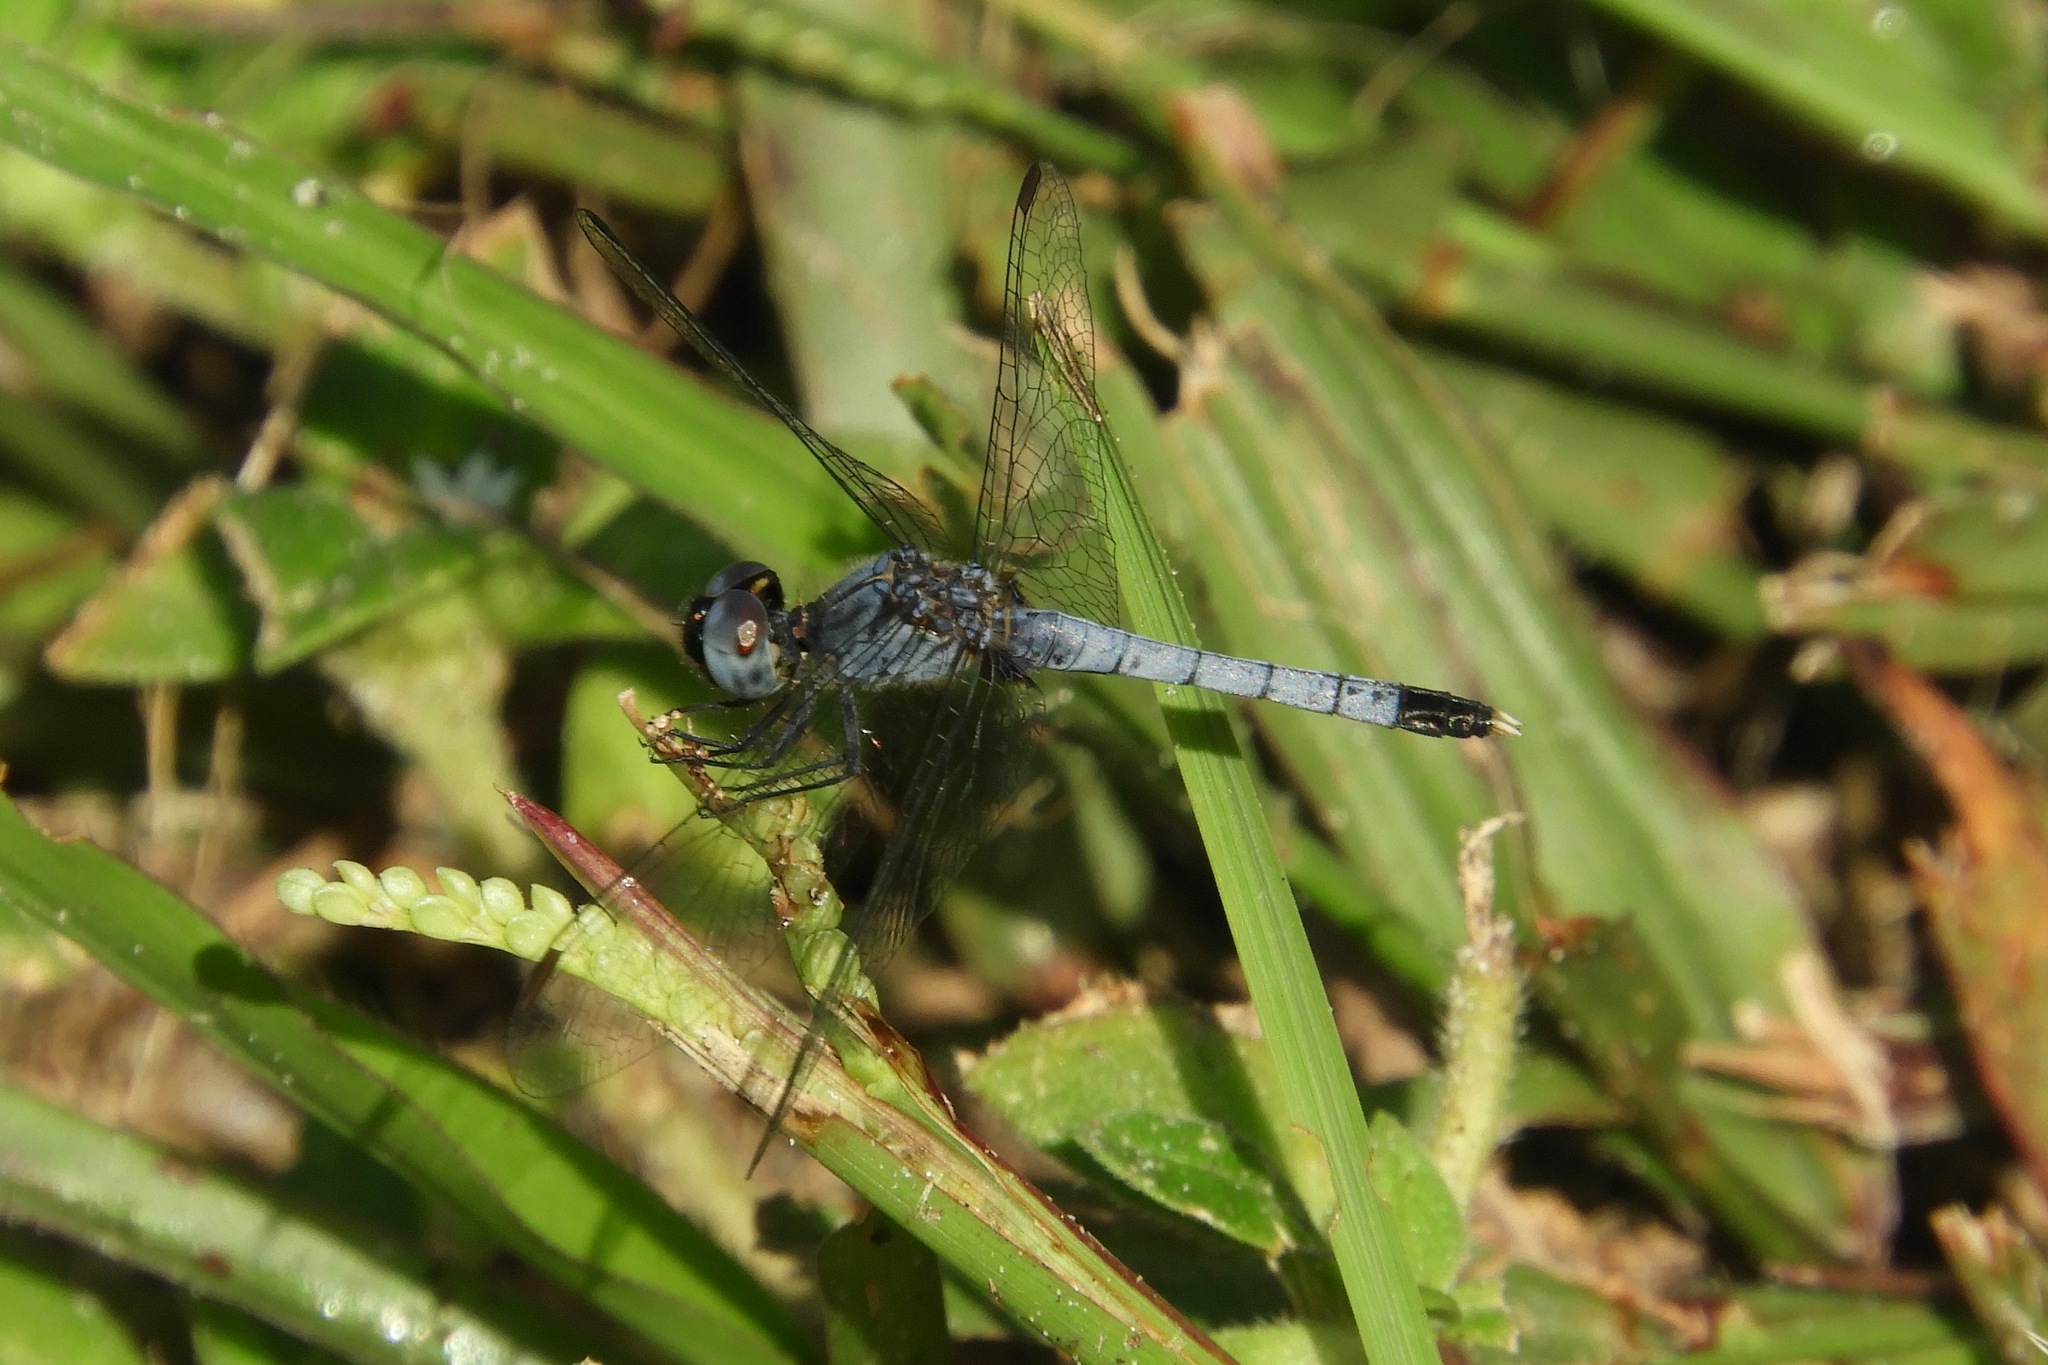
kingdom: Animalia
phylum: Arthropoda
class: Insecta
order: Odonata
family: Libellulidae
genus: Erythrodiplax
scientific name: Erythrodiplax minuscula
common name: Little blue dragonlet
